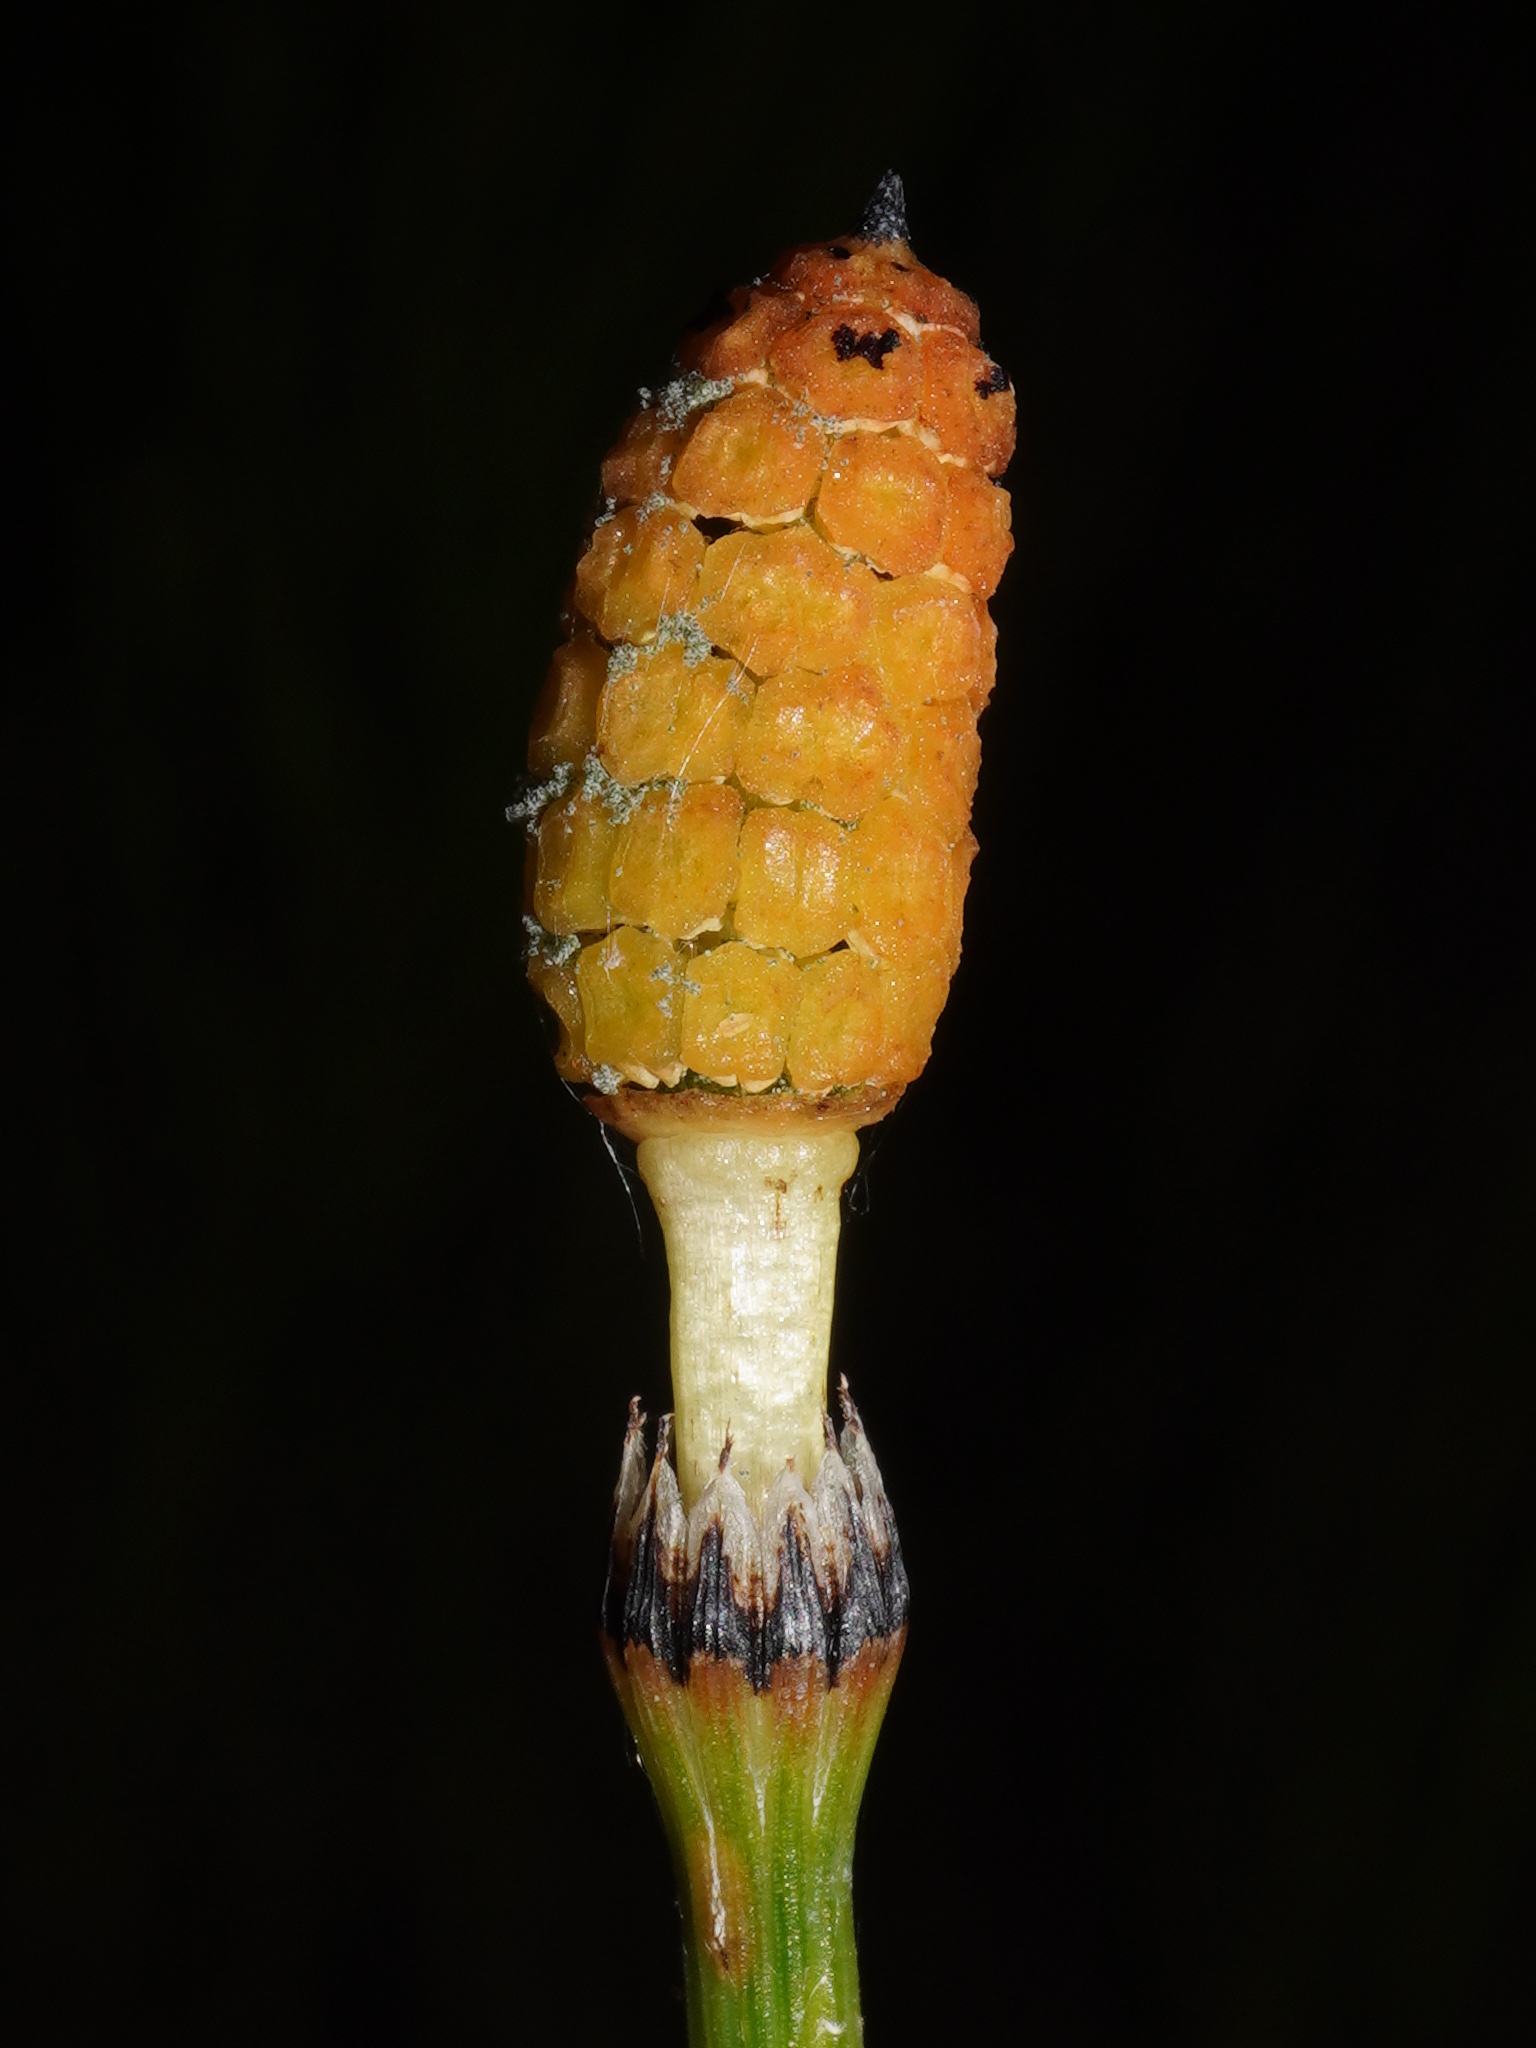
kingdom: Plantae
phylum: Tracheophyta
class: Polypodiopsida
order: Equisetales
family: Equisetaceae
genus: Equisetum
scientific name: Equisetum variegatum
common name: Variegated horsetail
